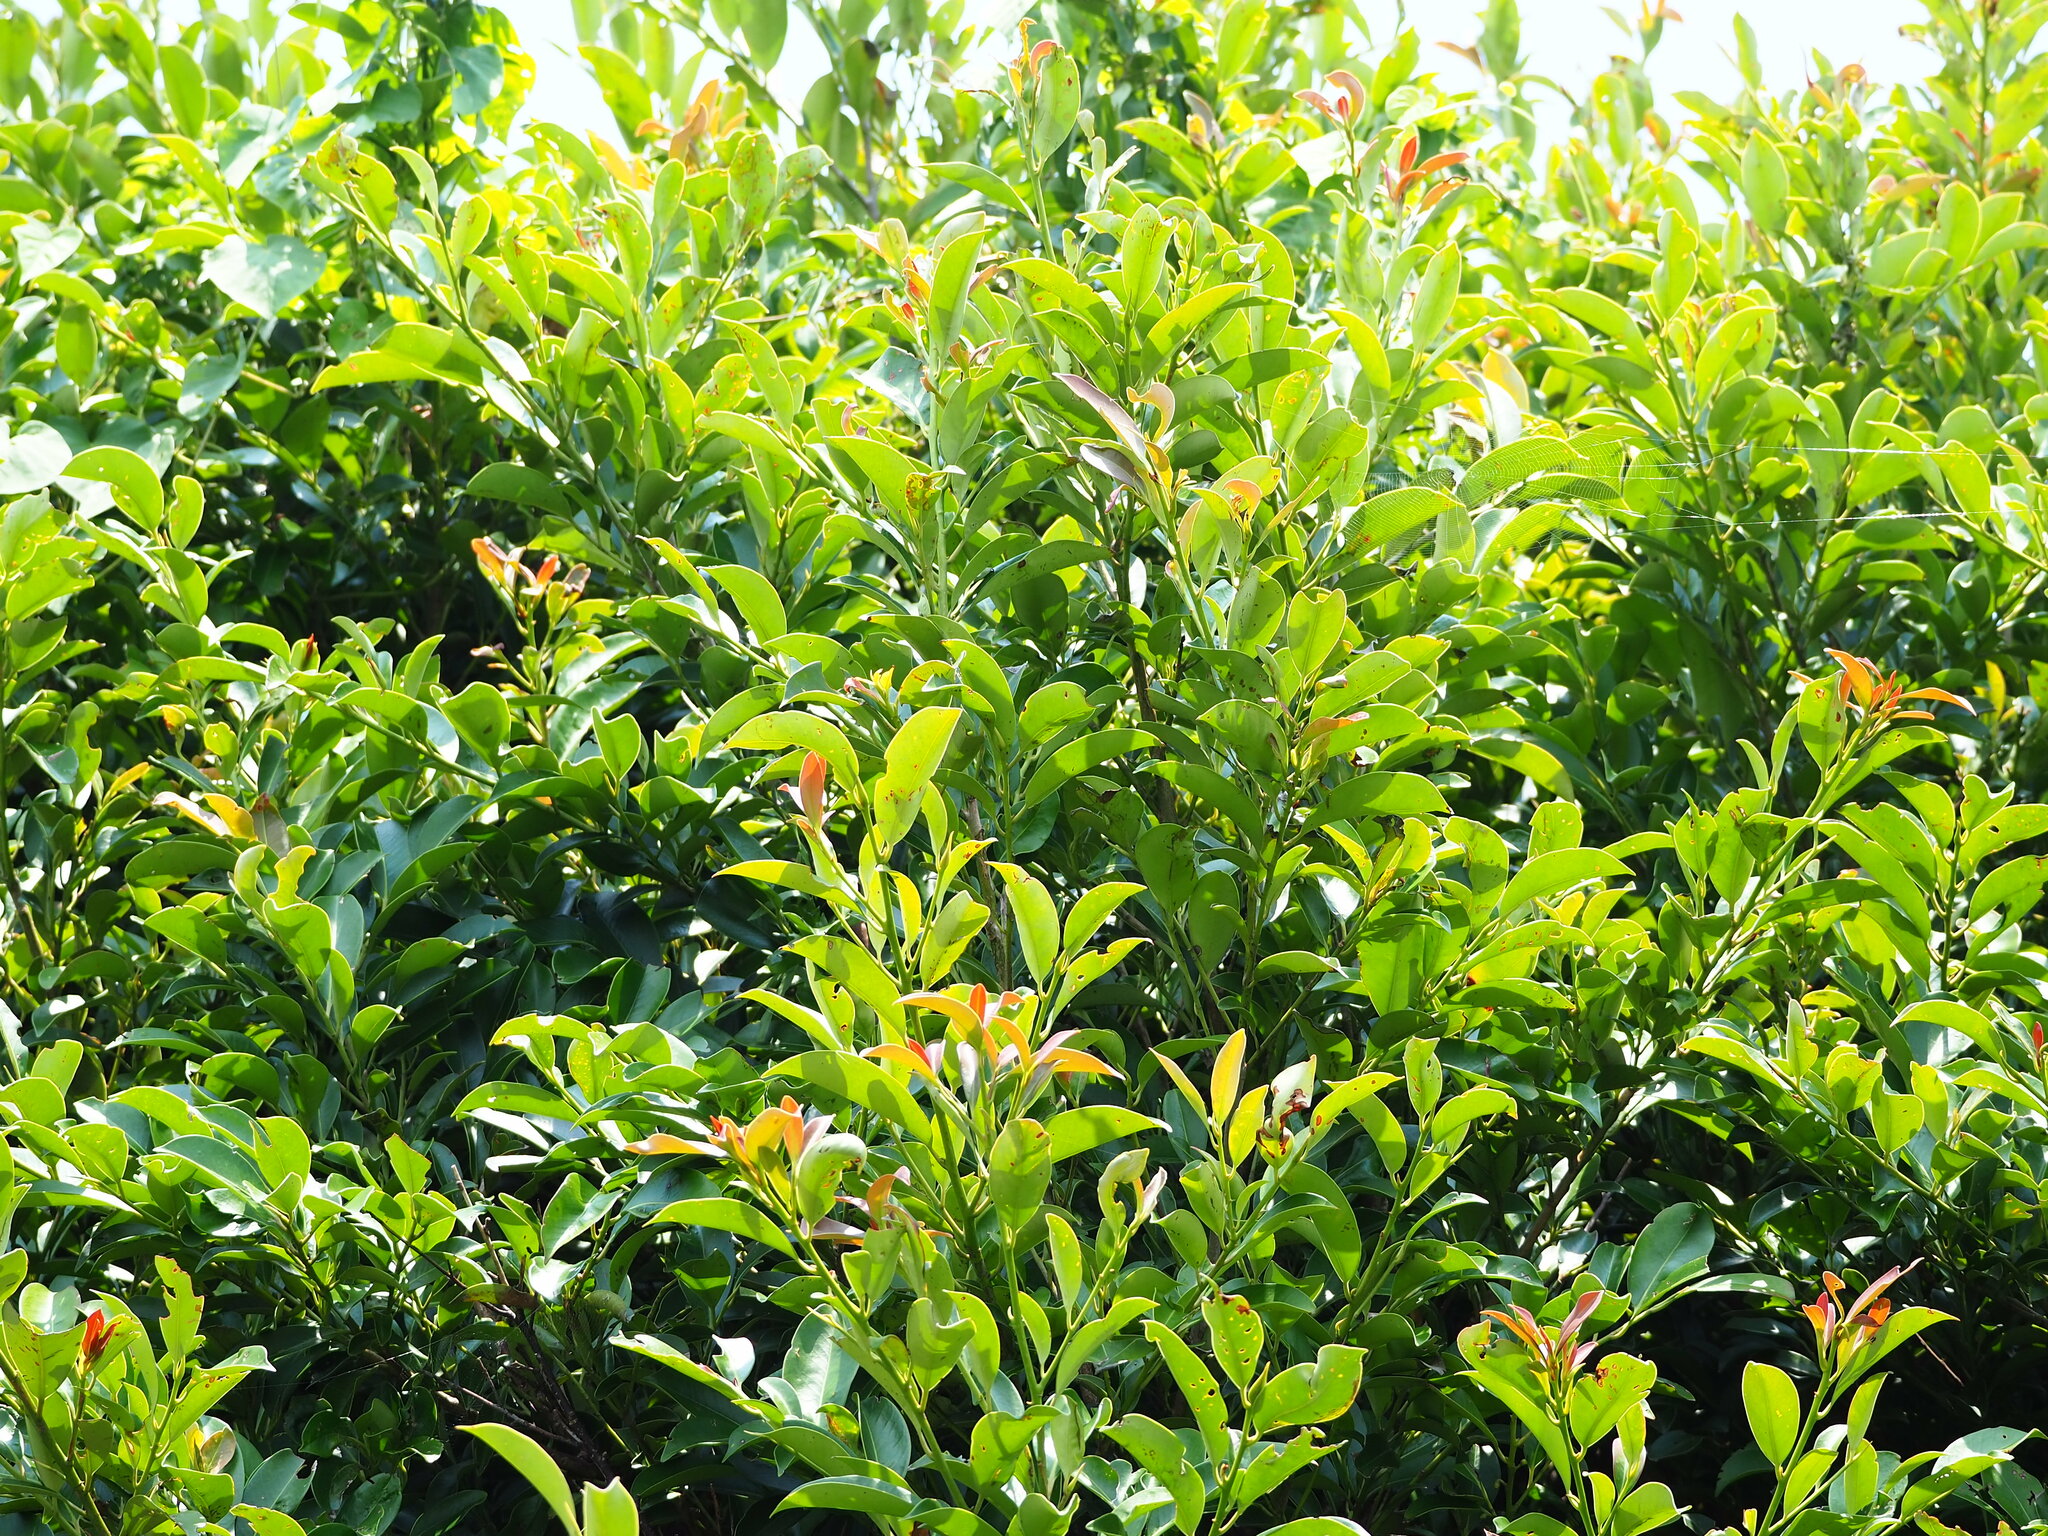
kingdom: Plantae
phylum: Tracheophyta
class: Magnoliopsida
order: Ericales
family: Pentaphylacaceae
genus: Cleyera
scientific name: Cleyera japonica
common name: Sakaki
